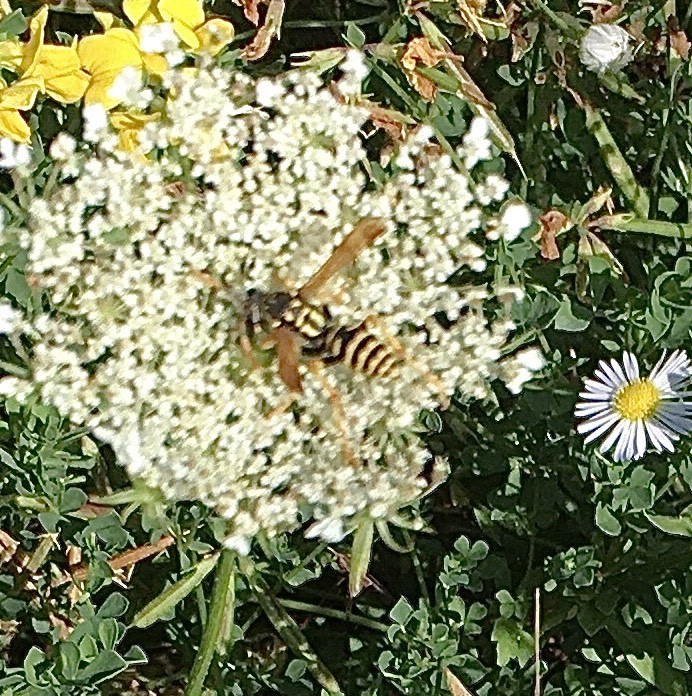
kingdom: Animalia
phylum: Arthropoda
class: Insecta
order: Hymenoptera
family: Eumenidae
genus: Polistes
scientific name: Polistes dominula
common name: Paper wasp
